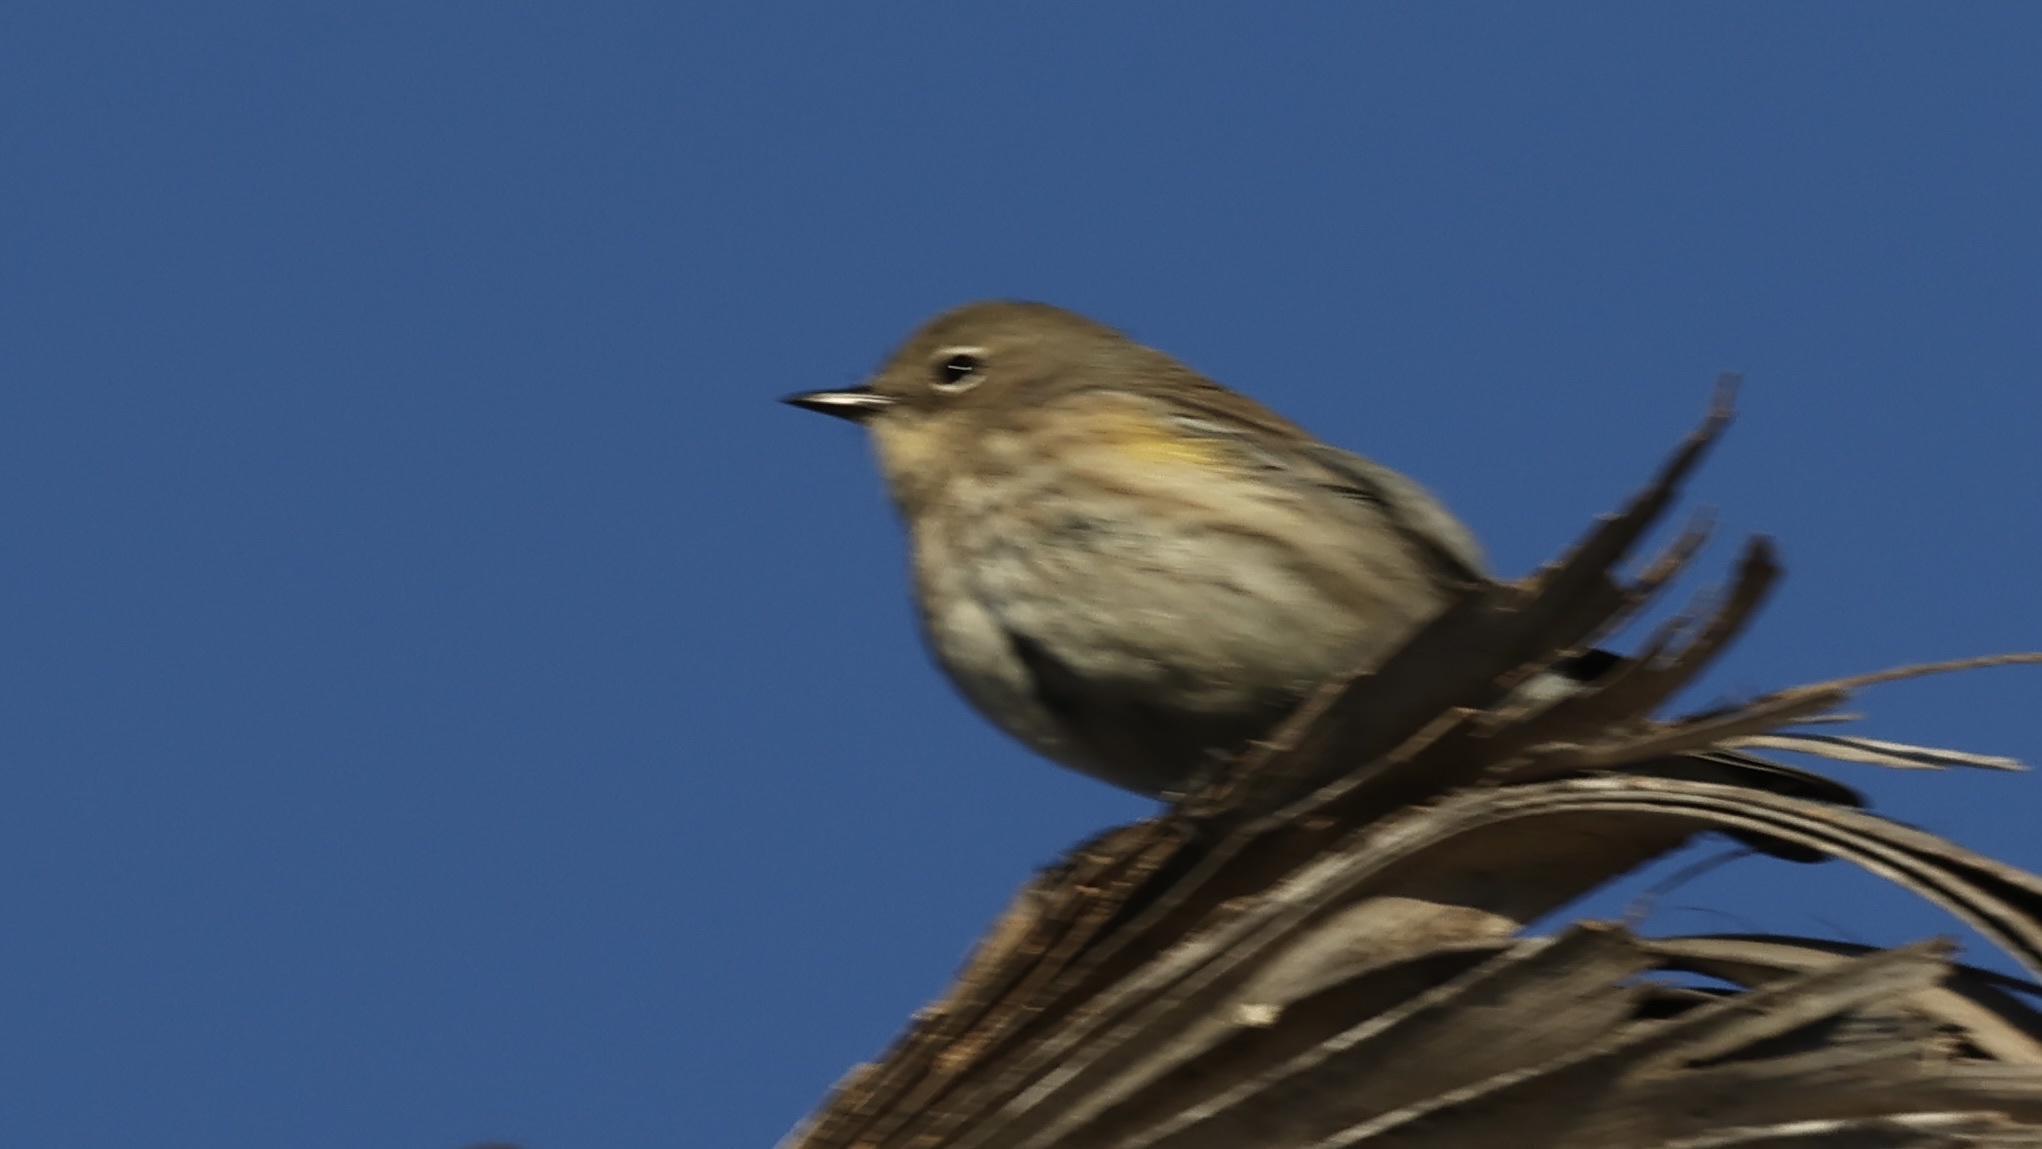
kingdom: Animalia
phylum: Chordata
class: Aves
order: Passeriformes
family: Parulidae
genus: Setophaga
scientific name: Setophaga coronata
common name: Myrtle warbler
